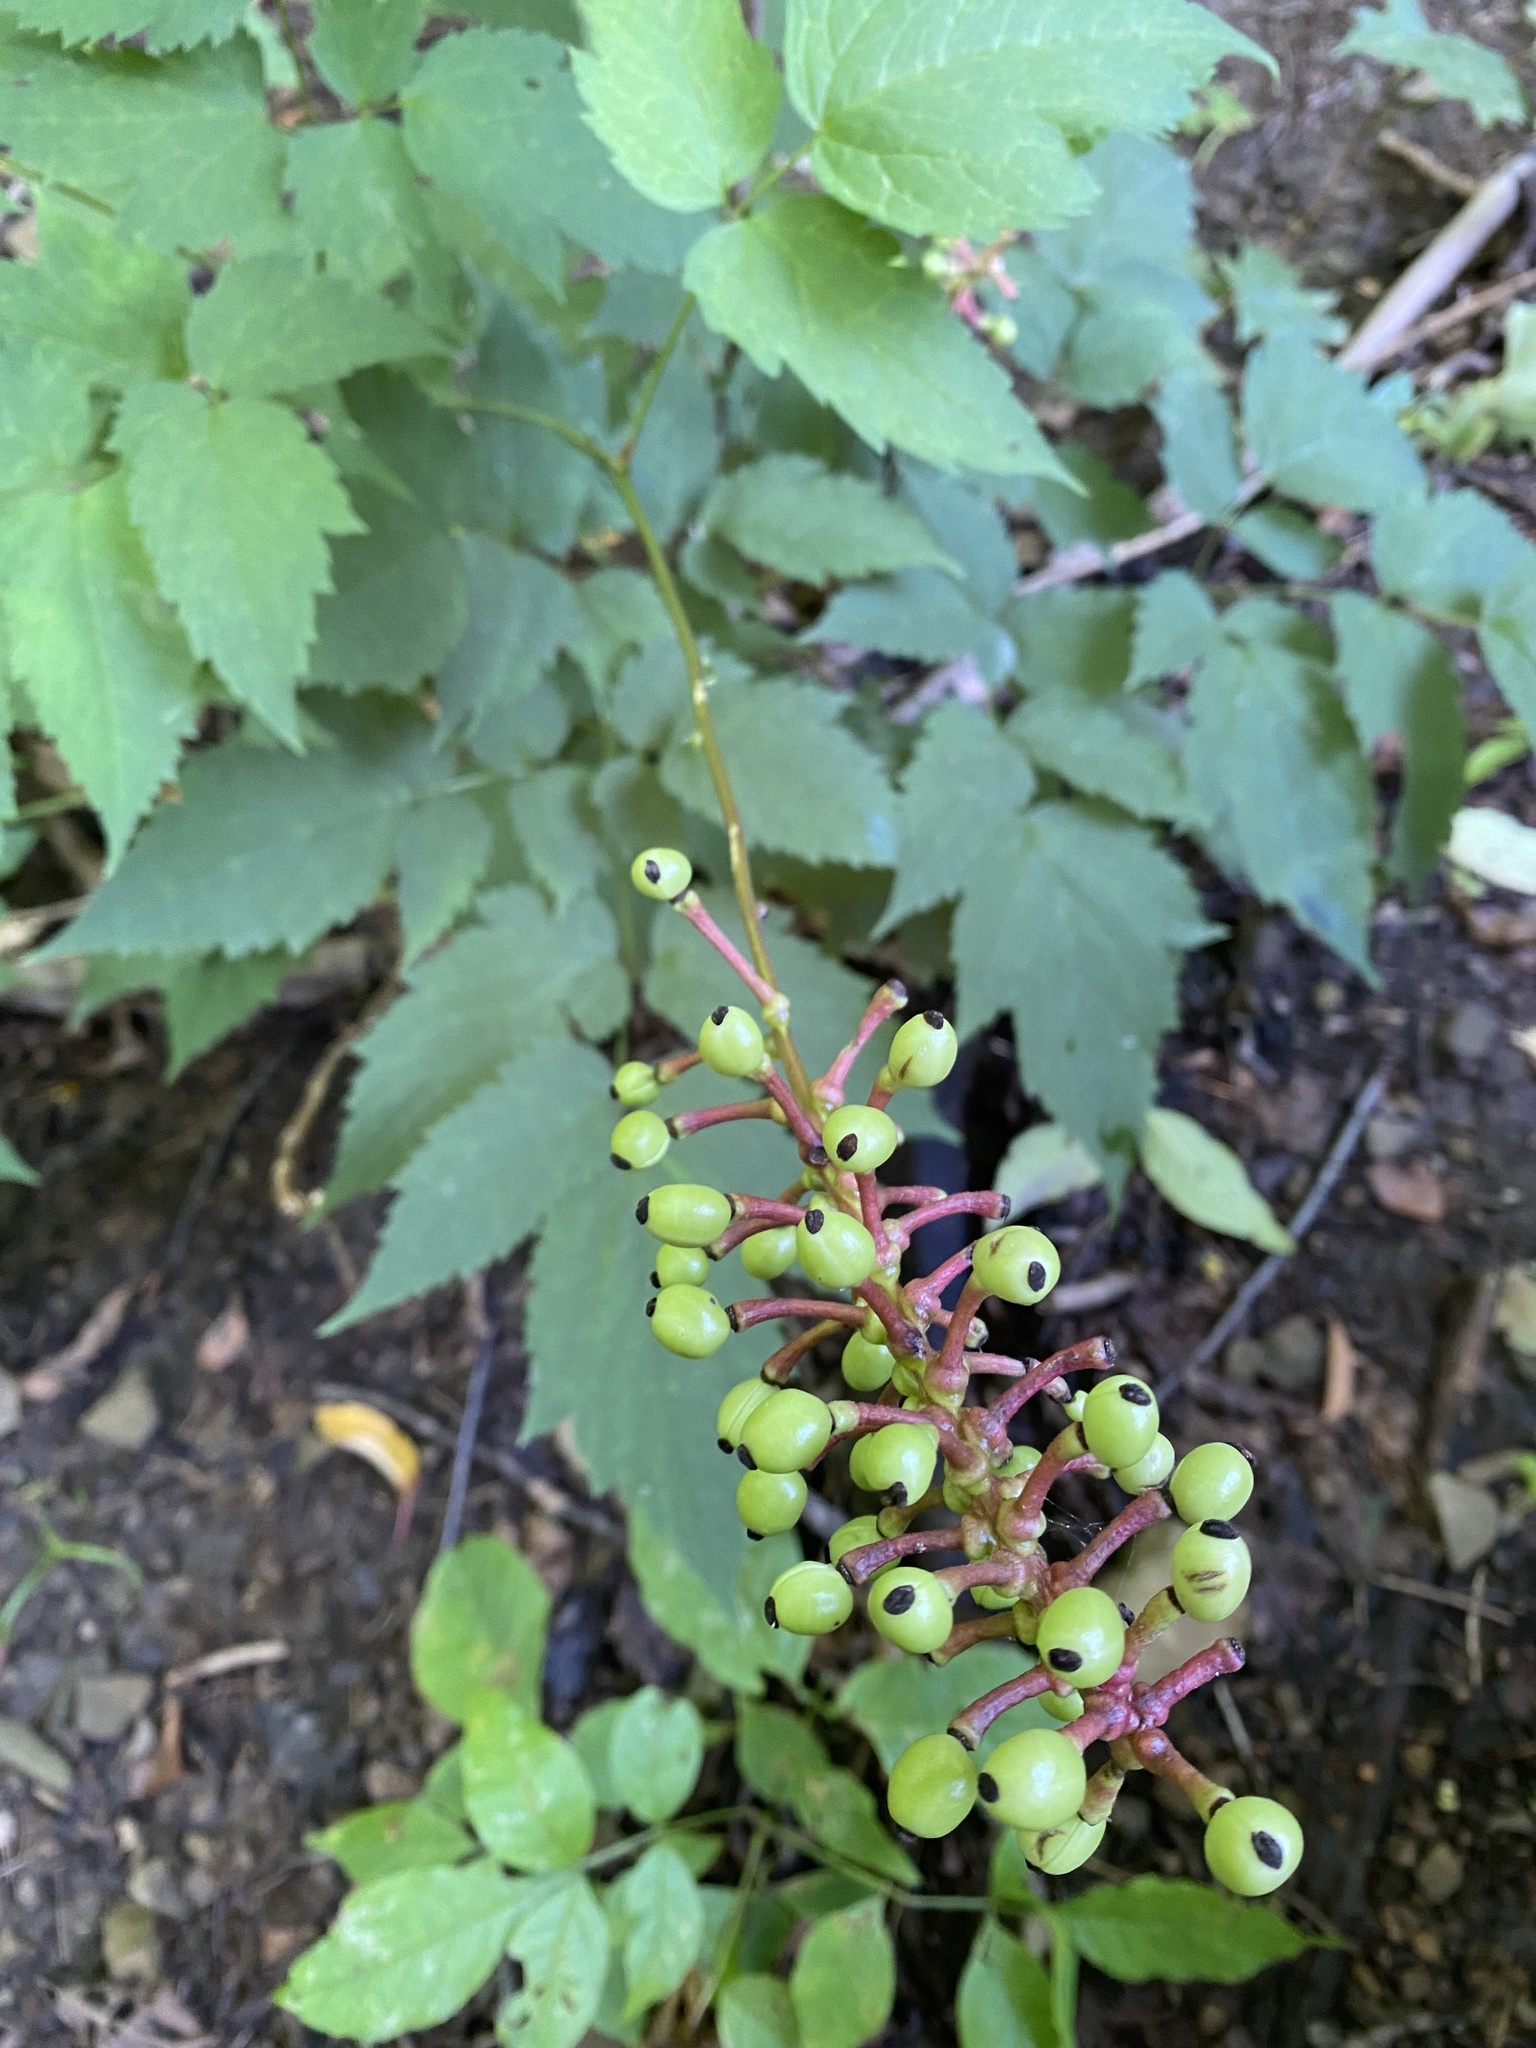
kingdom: Plantae
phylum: Tracheophyta
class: Magnoliopsida
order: Ranunculales
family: Ranunculaceae
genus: Actaea
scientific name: Actaea pachypoda
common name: Doll's-eyes
